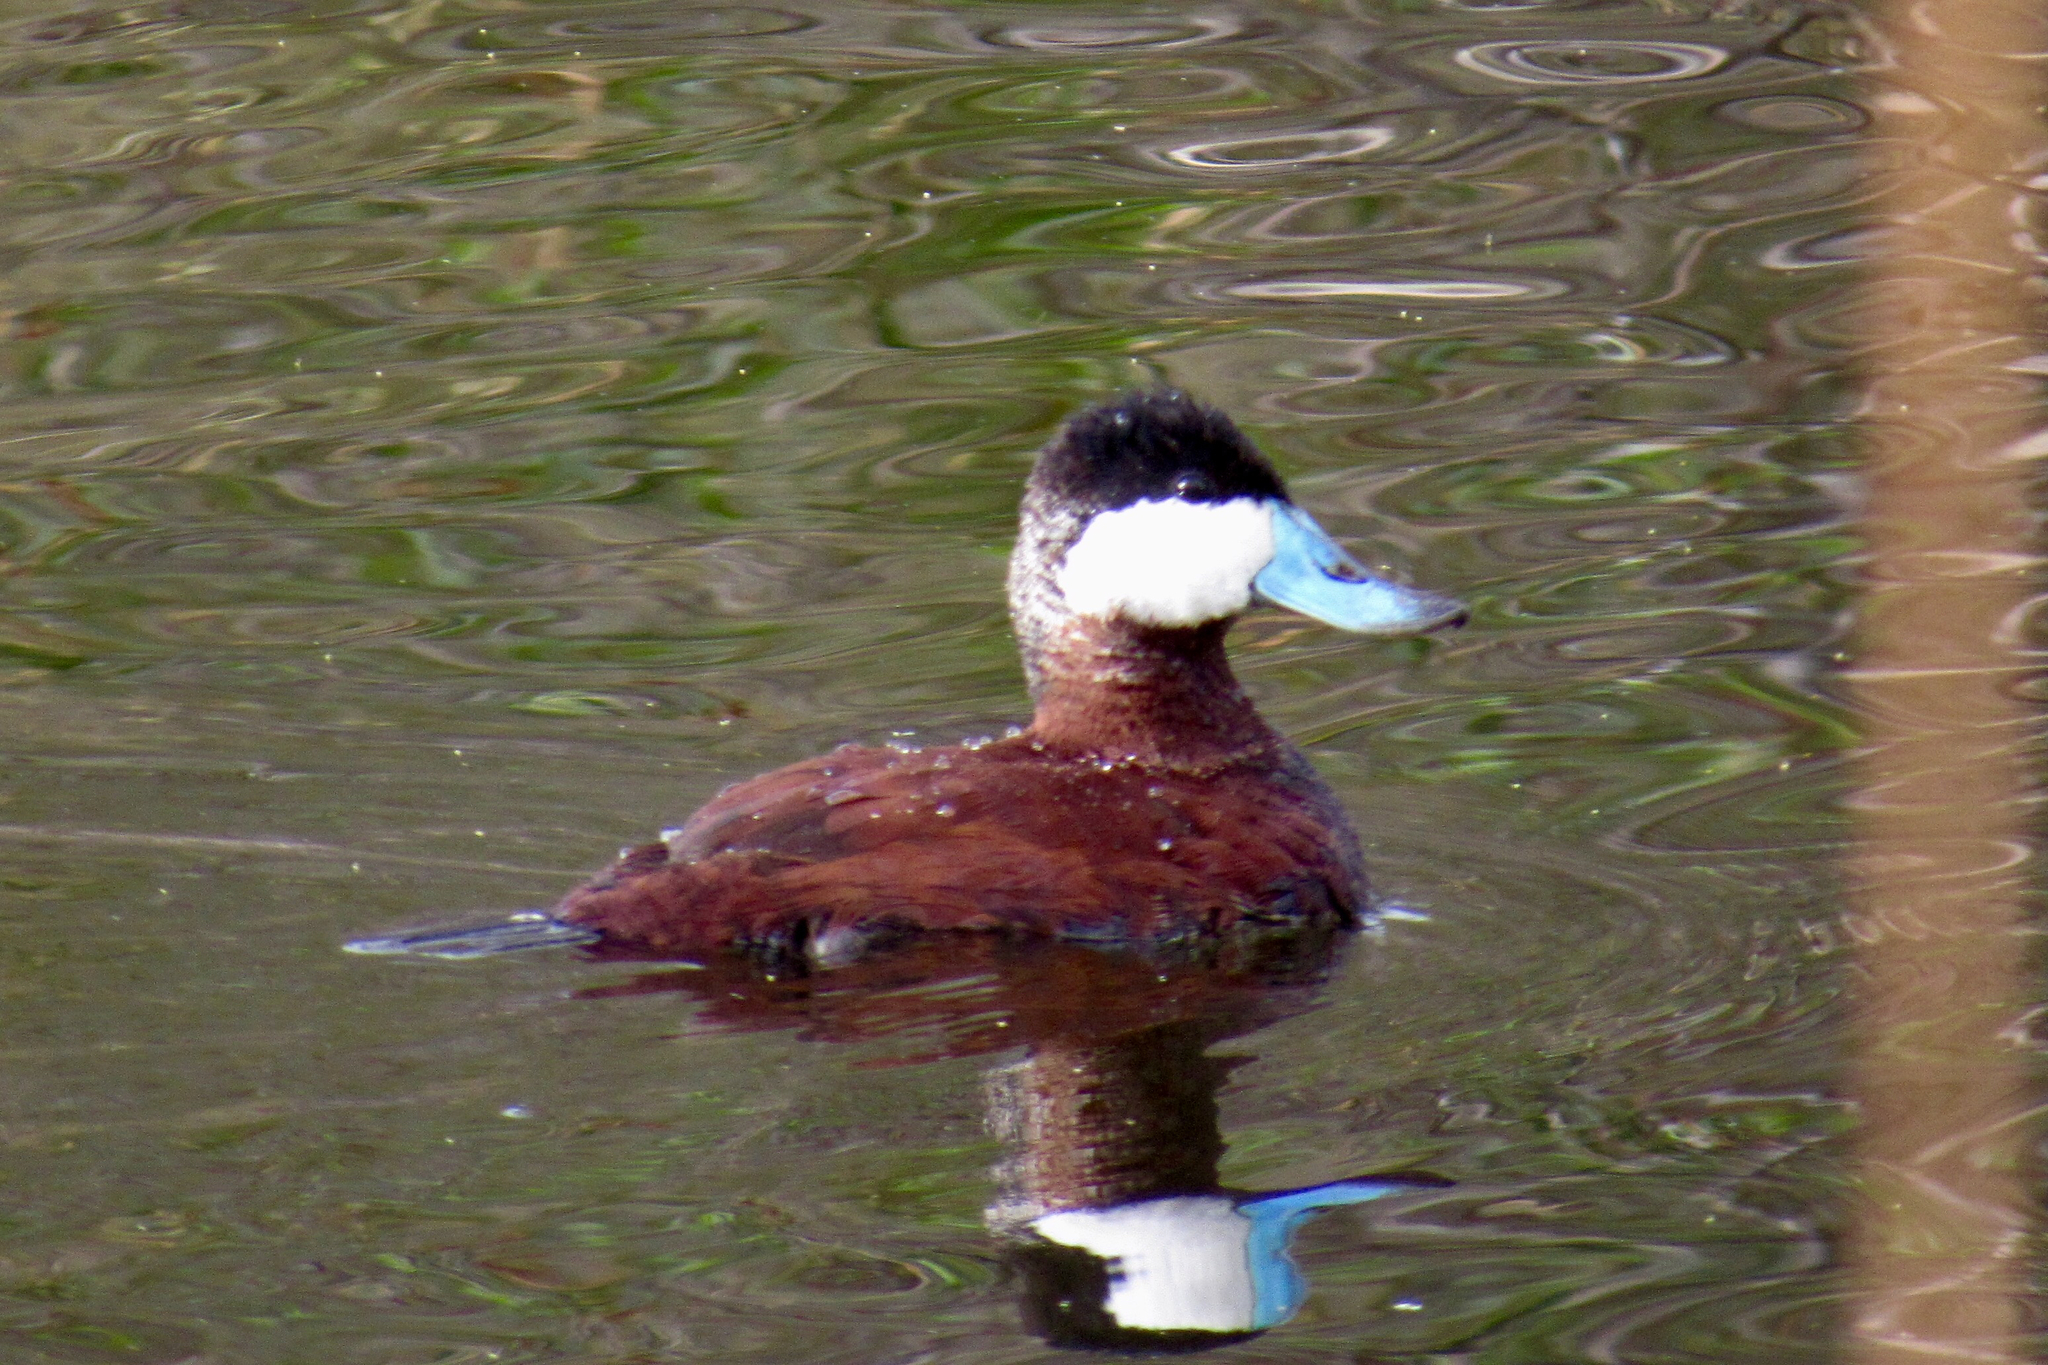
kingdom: Animalia
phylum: Chordata
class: Aves
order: Anseriformes
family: Anatidae
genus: Oxyura
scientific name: Oxyura jamaicensis
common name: Ruddy duck
